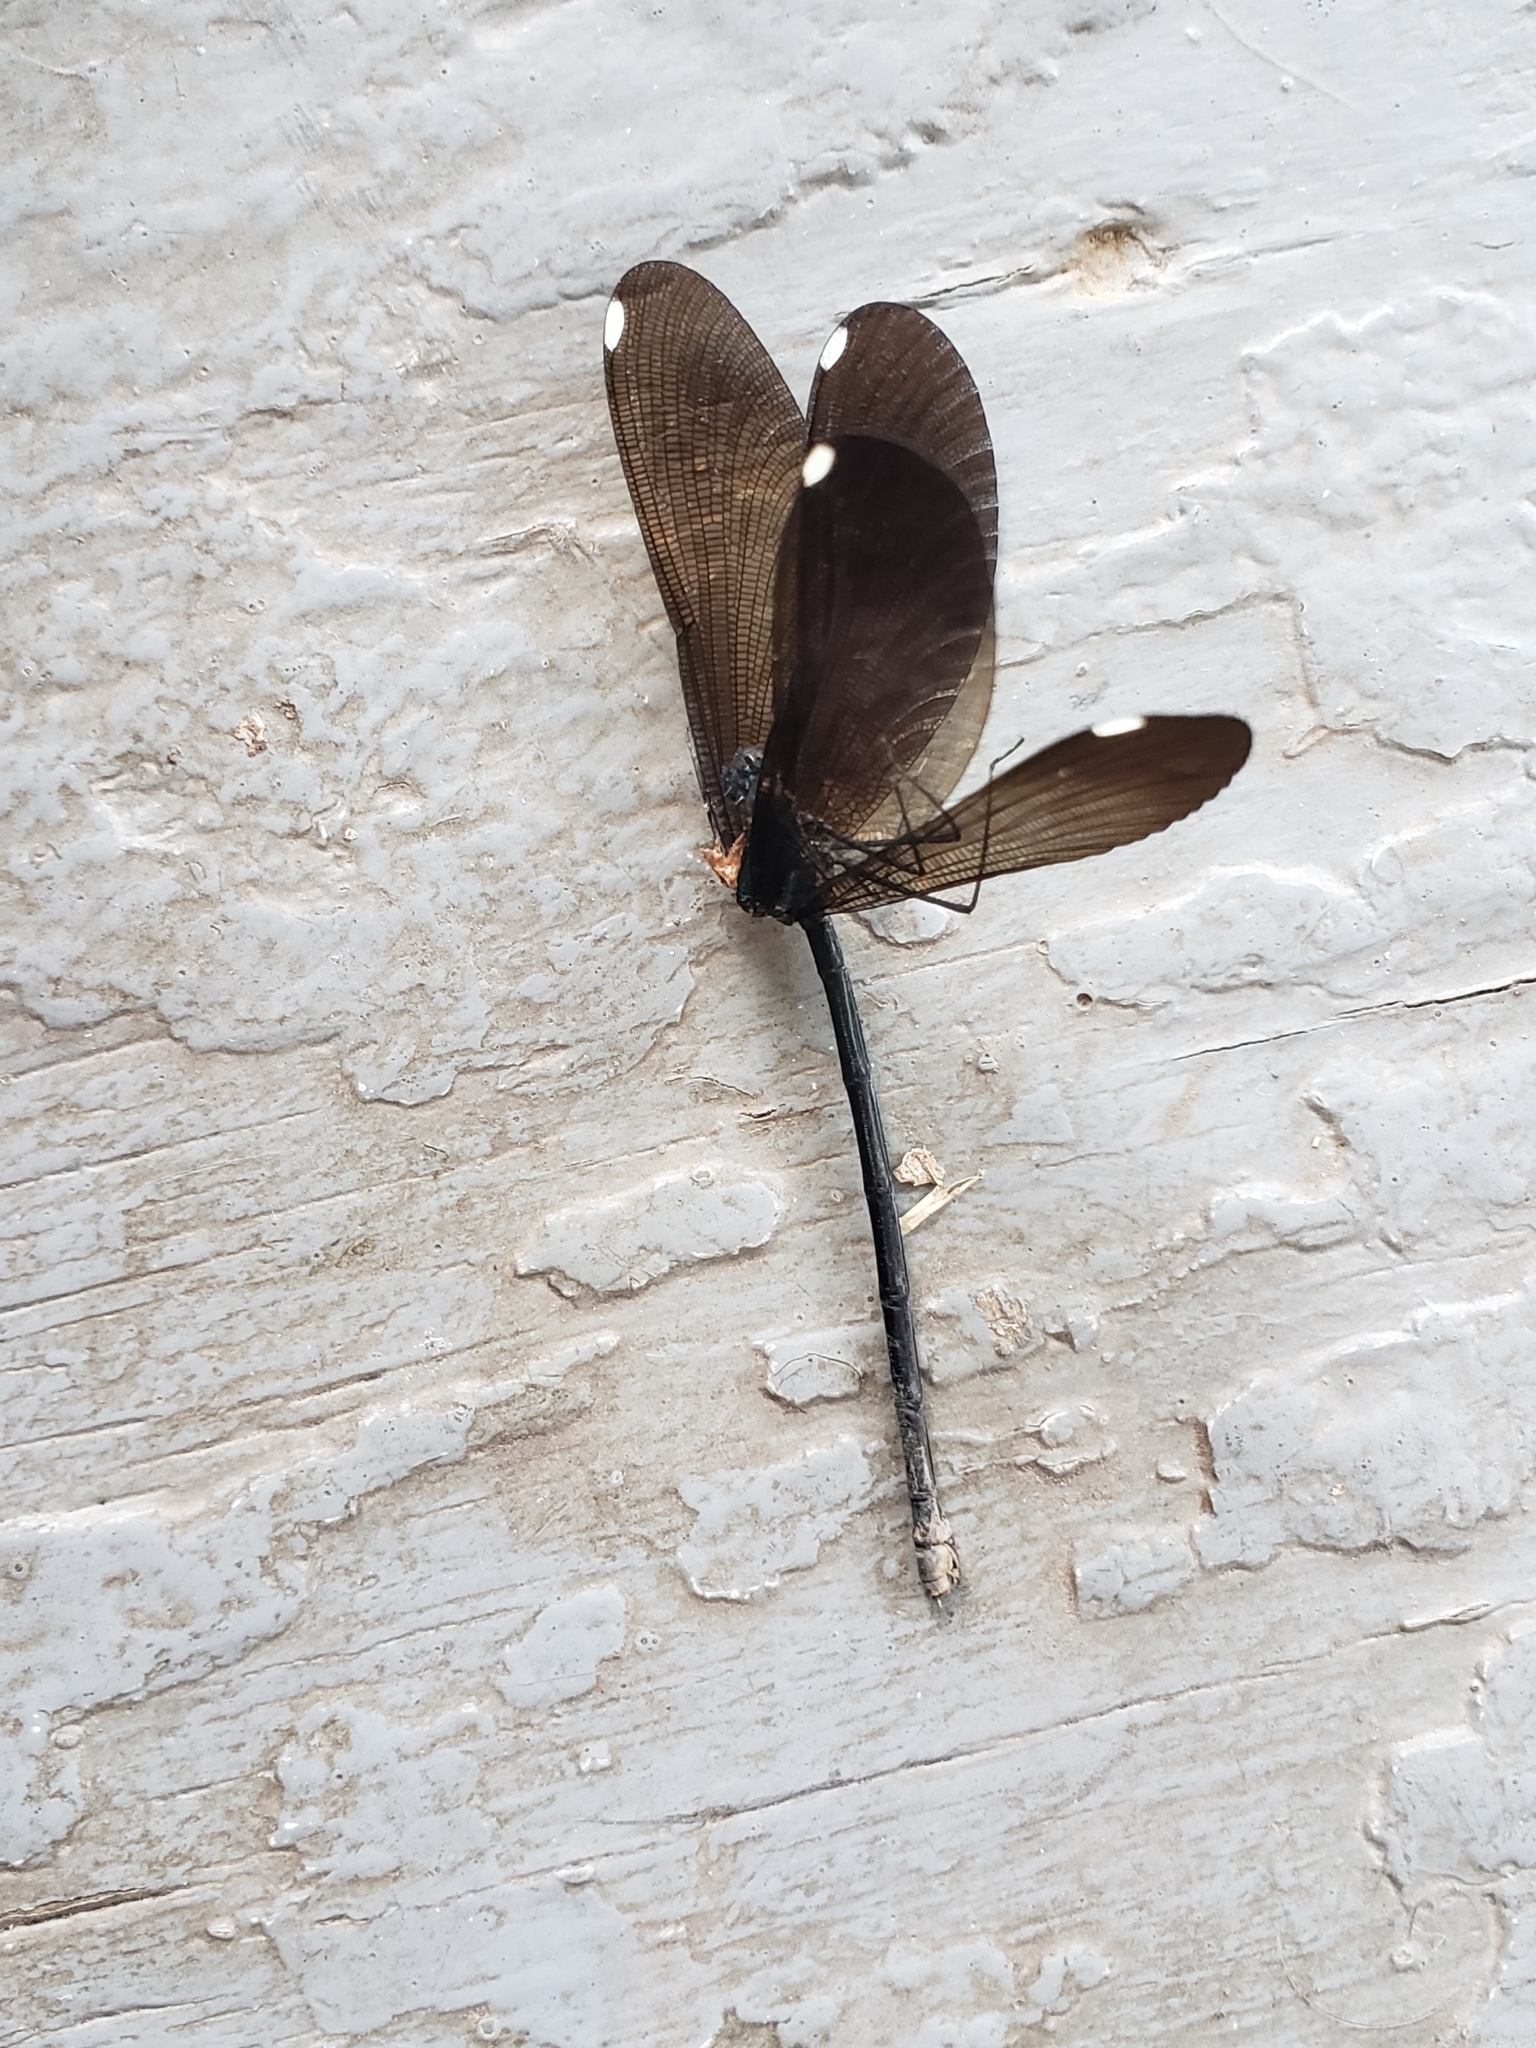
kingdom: Animalia
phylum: Arthropoda
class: Insecta
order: Odonata
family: Calopterygidae
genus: Calopteryx
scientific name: Calopteryx maculata
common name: Ebony jewelwing
